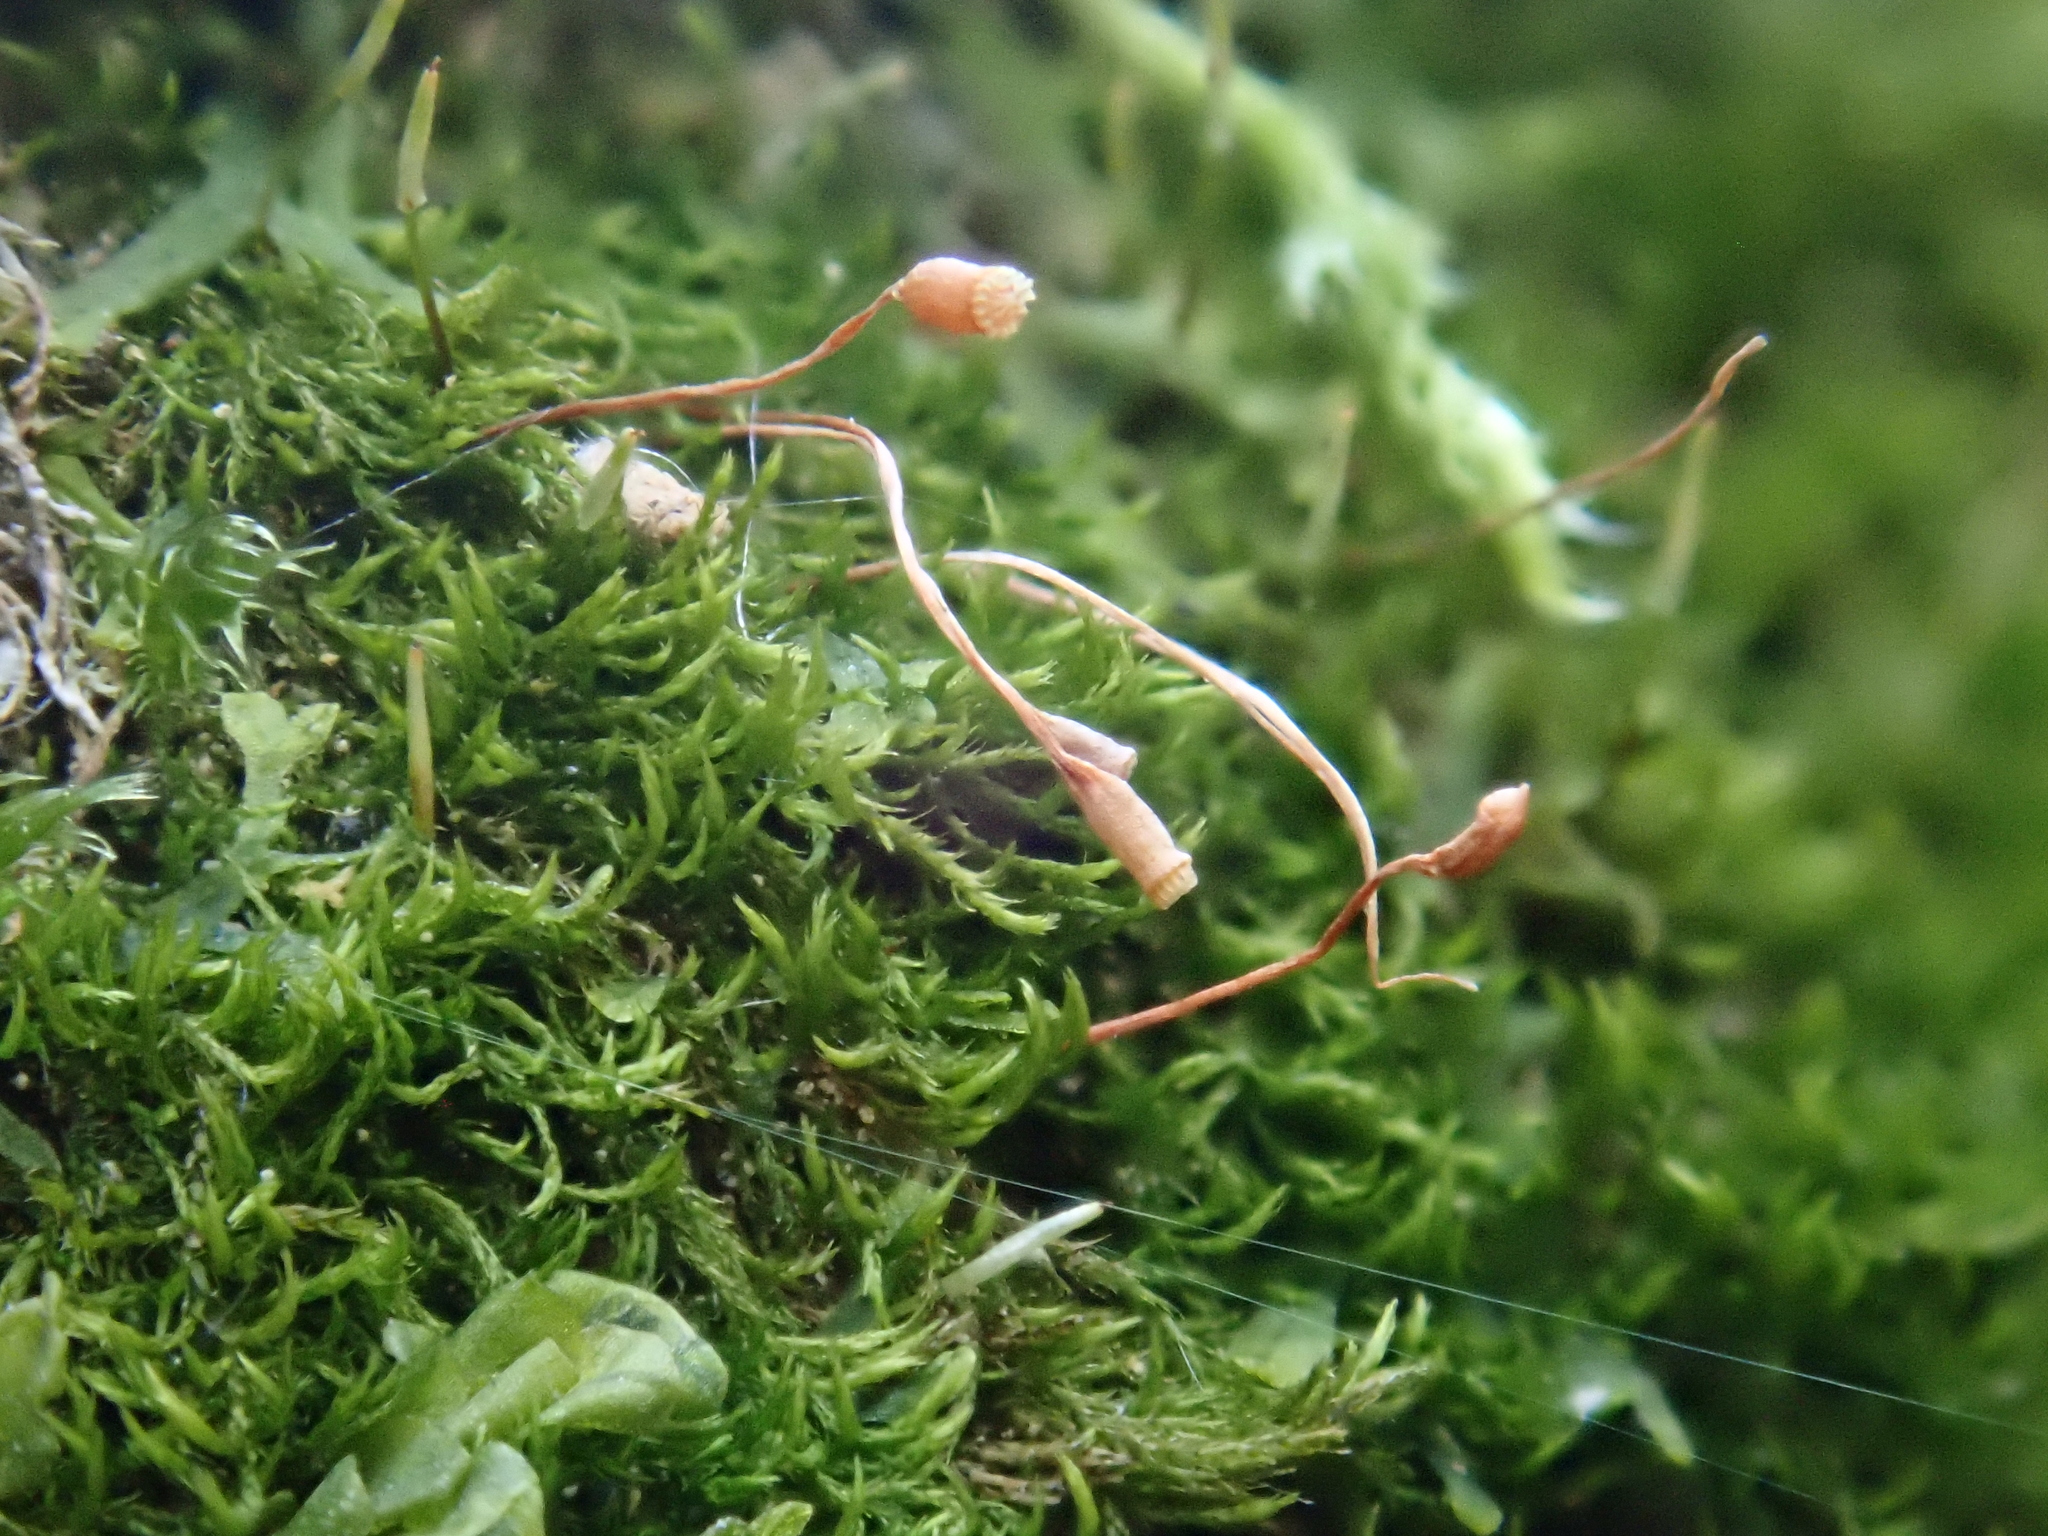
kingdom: Plantae
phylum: Bryophyta
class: Bryopsida
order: Hypnales
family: Amblystegiaceae
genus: Pseudoamblystegium
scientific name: Pseudoamblystegium subtile
